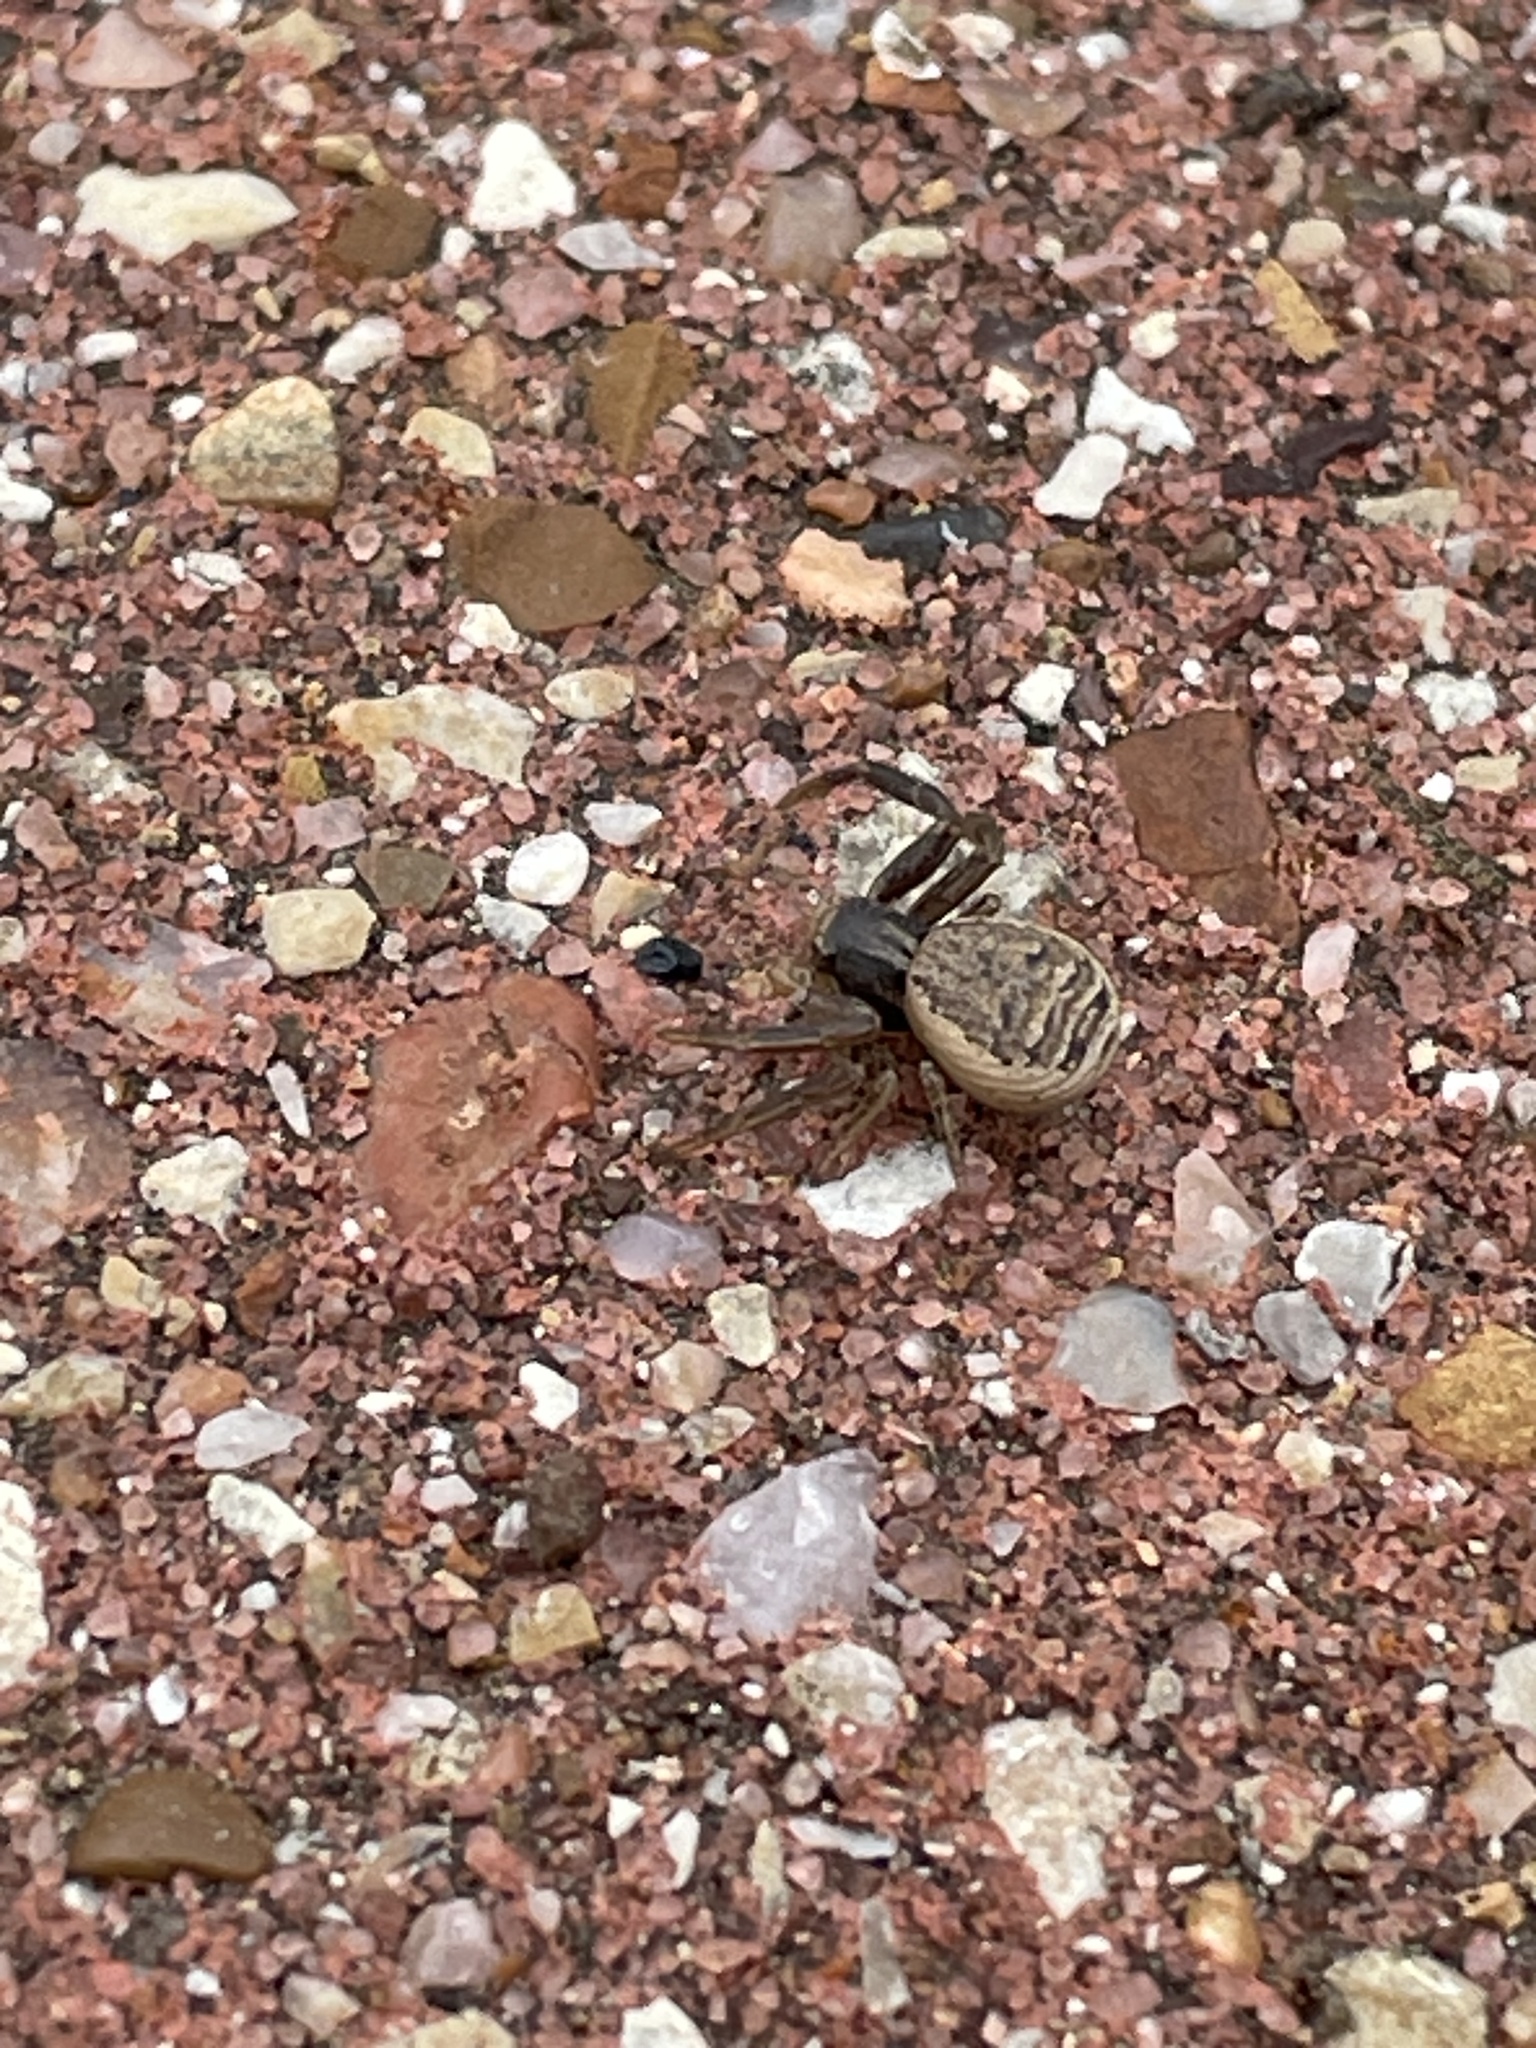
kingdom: Animalia
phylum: Arthropoda
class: Arachnida
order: Araneae
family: Thomisidae
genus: Xysticus
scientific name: Xysticus texanus
